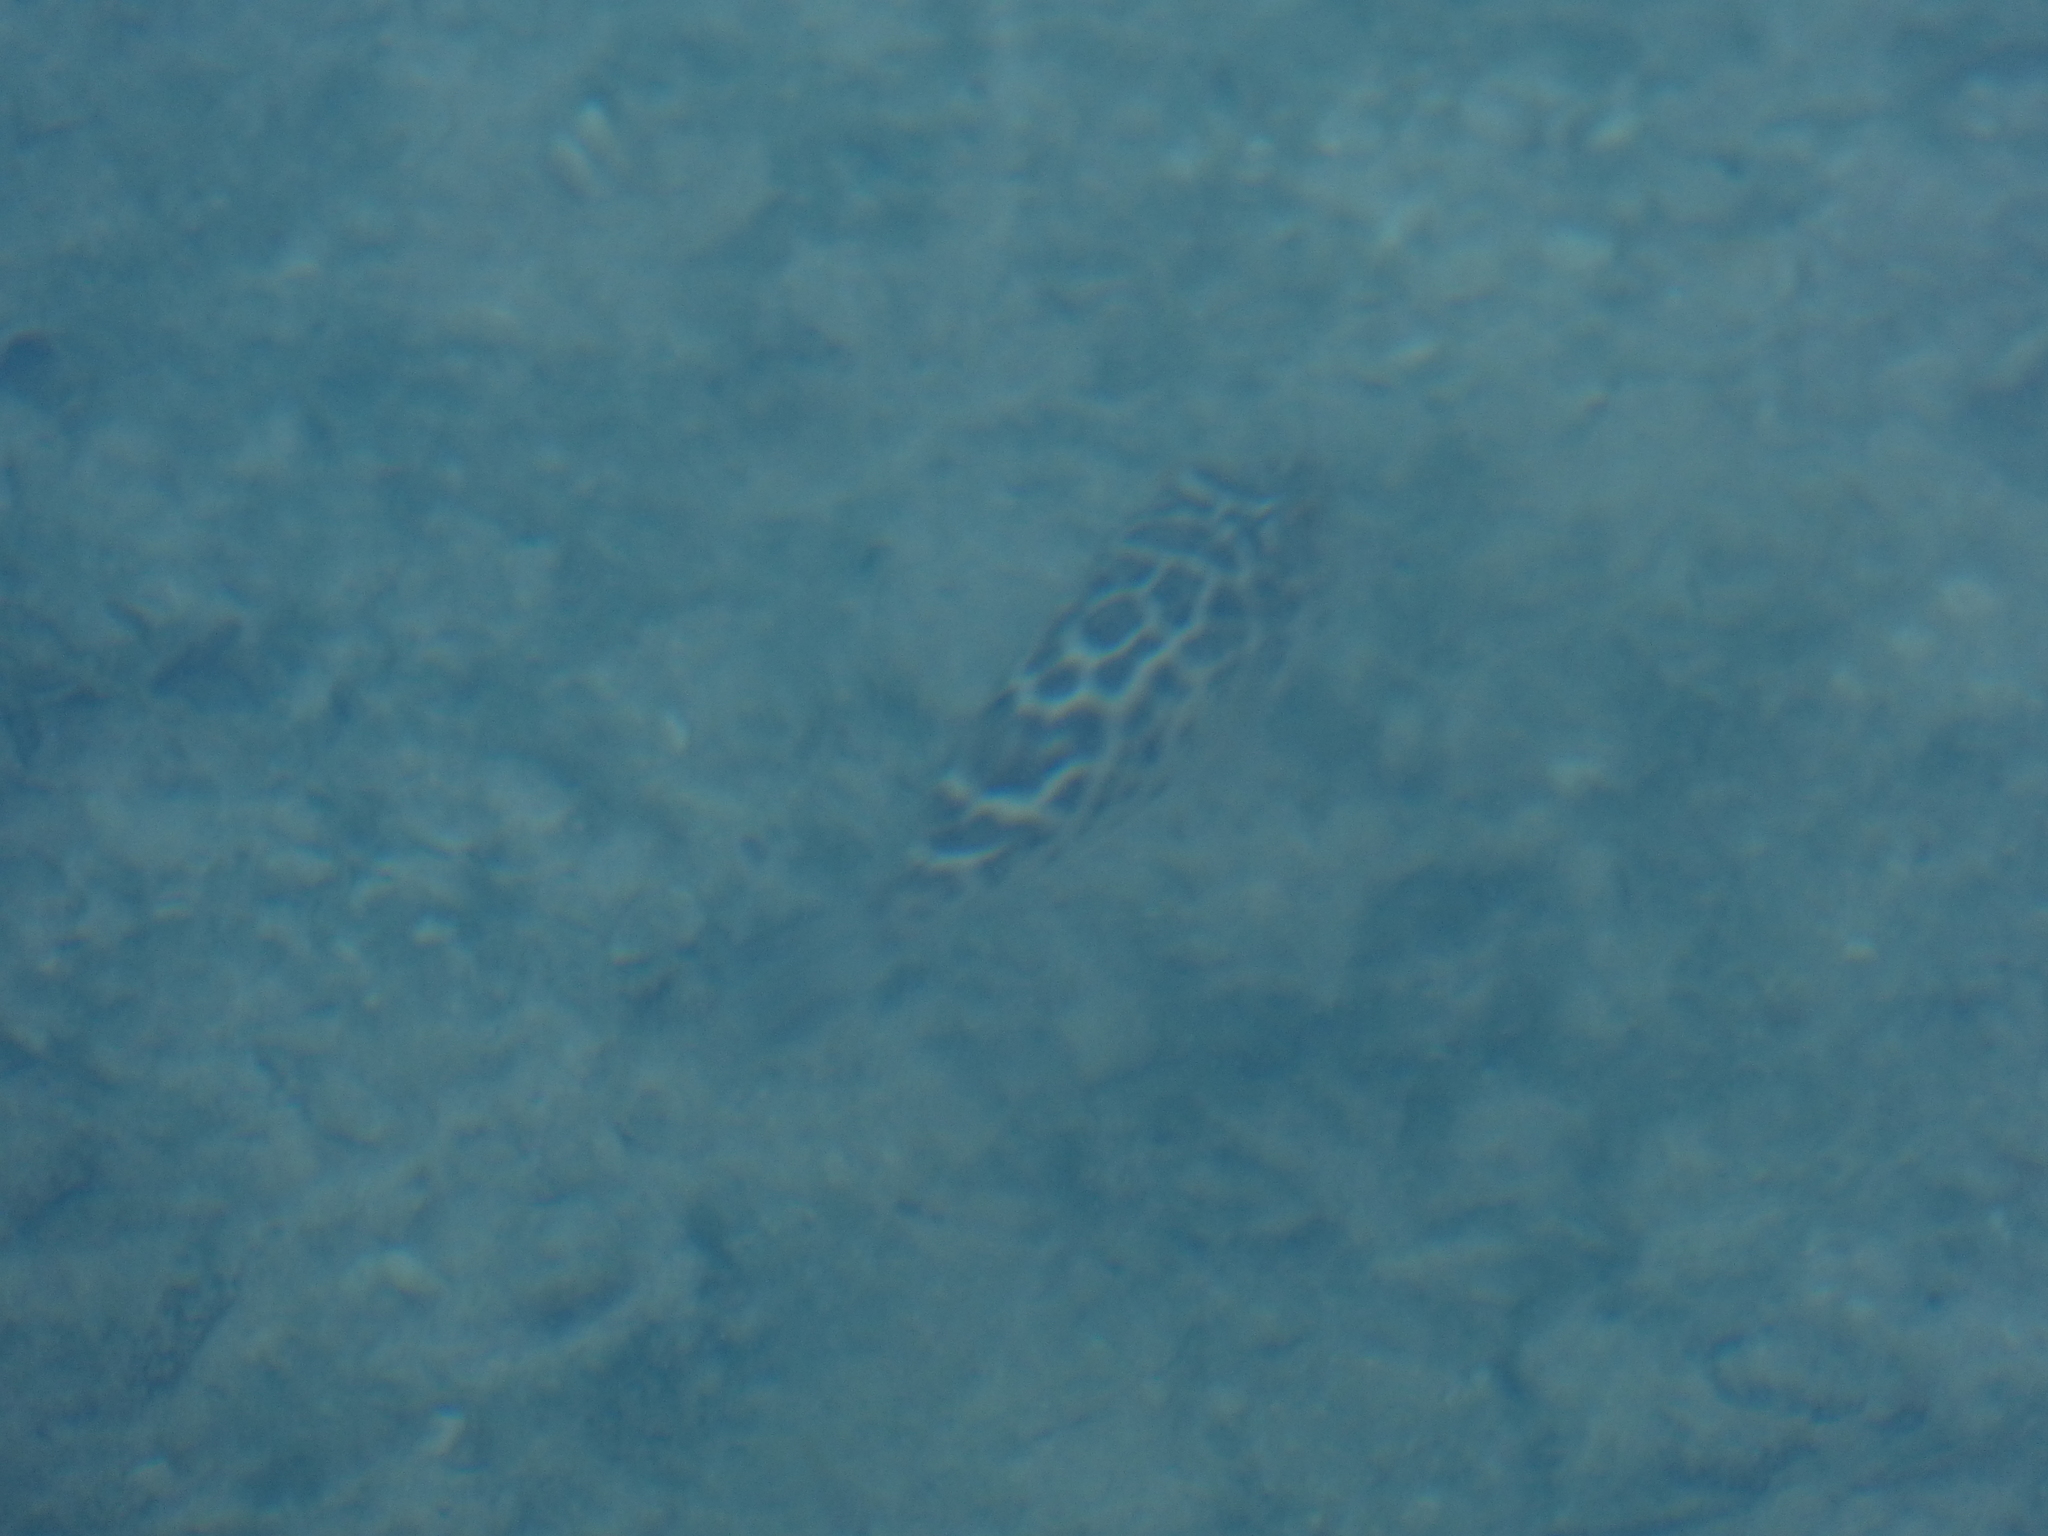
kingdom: Animalia
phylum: Chordata
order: Tetraodontiformes
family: Tetraodontidae
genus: Sphoeroides
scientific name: Sphoeroides testudineus
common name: Checkered puffer
